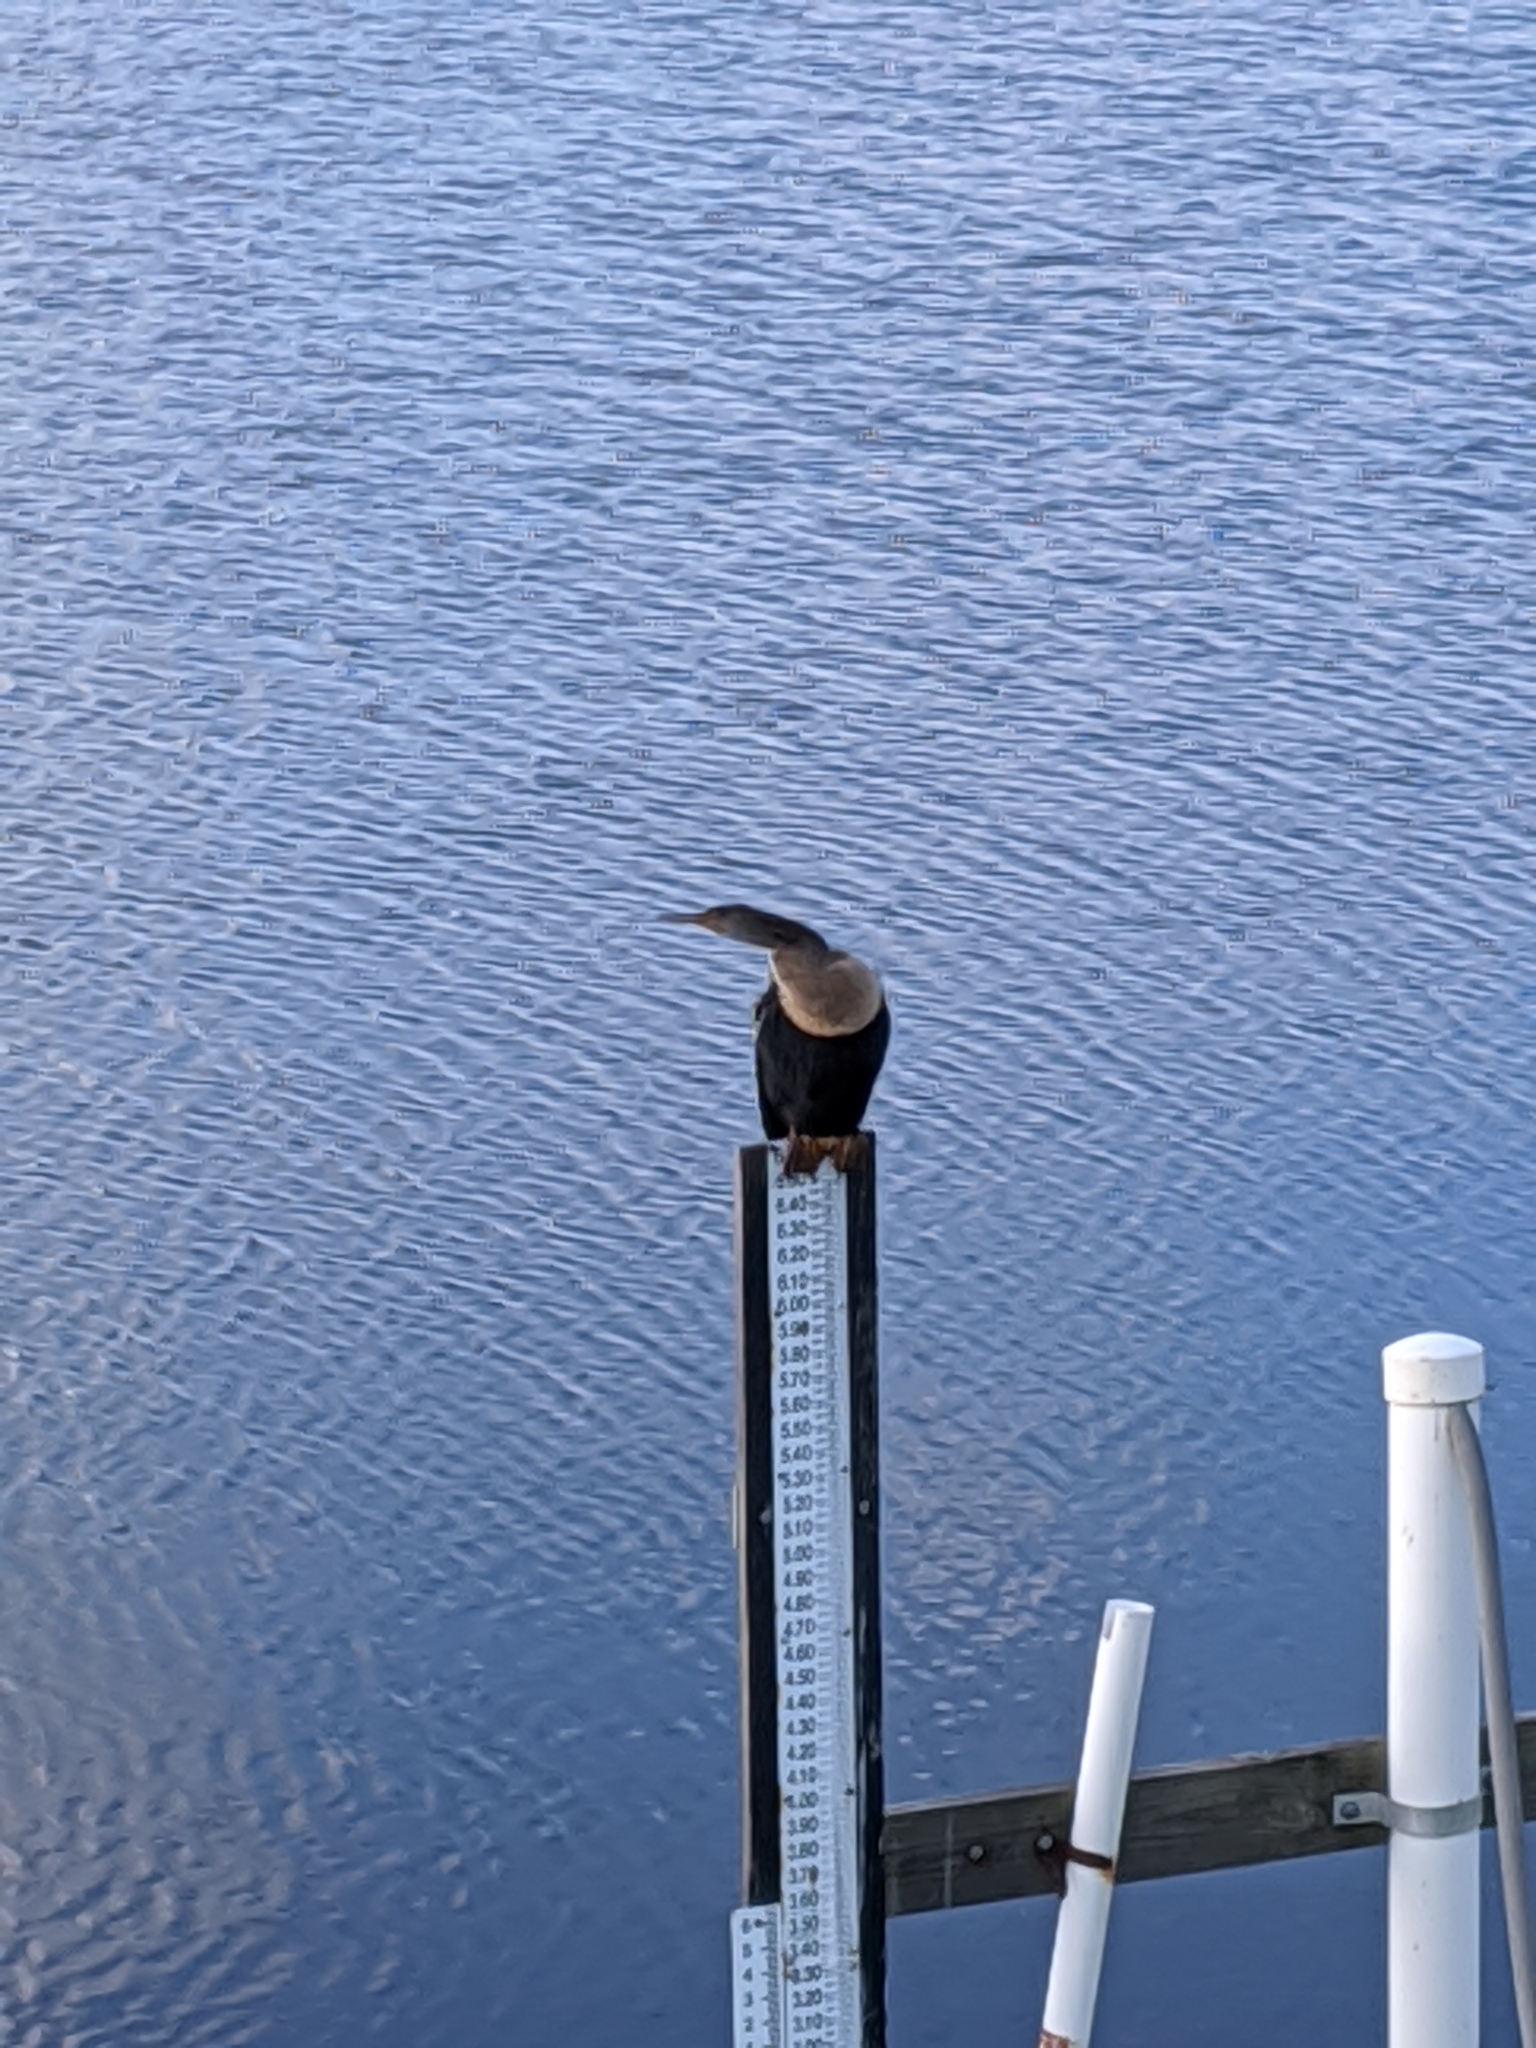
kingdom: Animalia
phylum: Chordata
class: Aves
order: Suliformes
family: Anhingidae
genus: Anhinga
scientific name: Anhinga anhinga
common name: Anhinga
